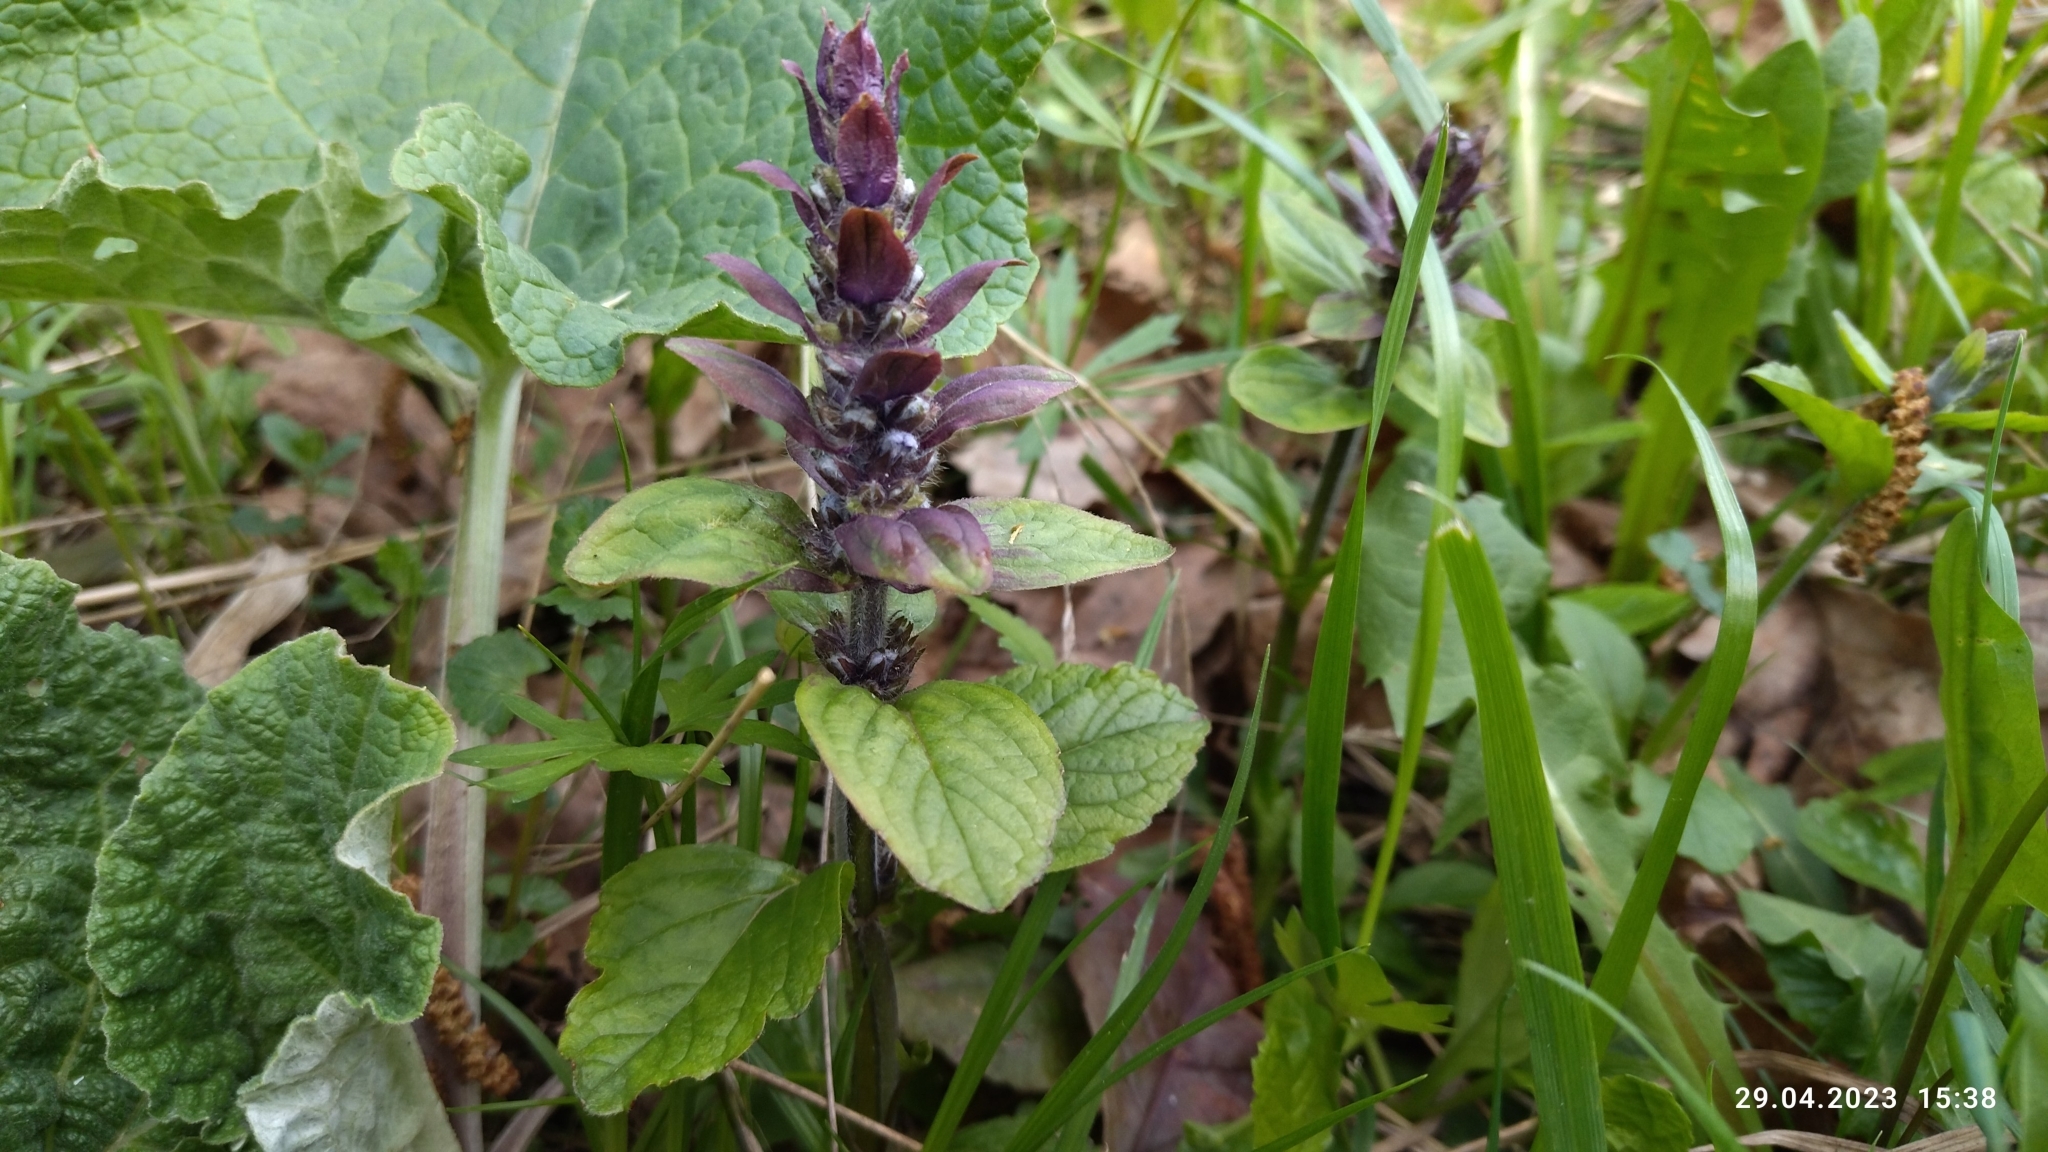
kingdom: Plantae
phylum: Tracheophyta
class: Magnoliopsida
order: Lamiales
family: Lamiaceae
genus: Ajuga
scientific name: Ajuga reptans
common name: Bugle
